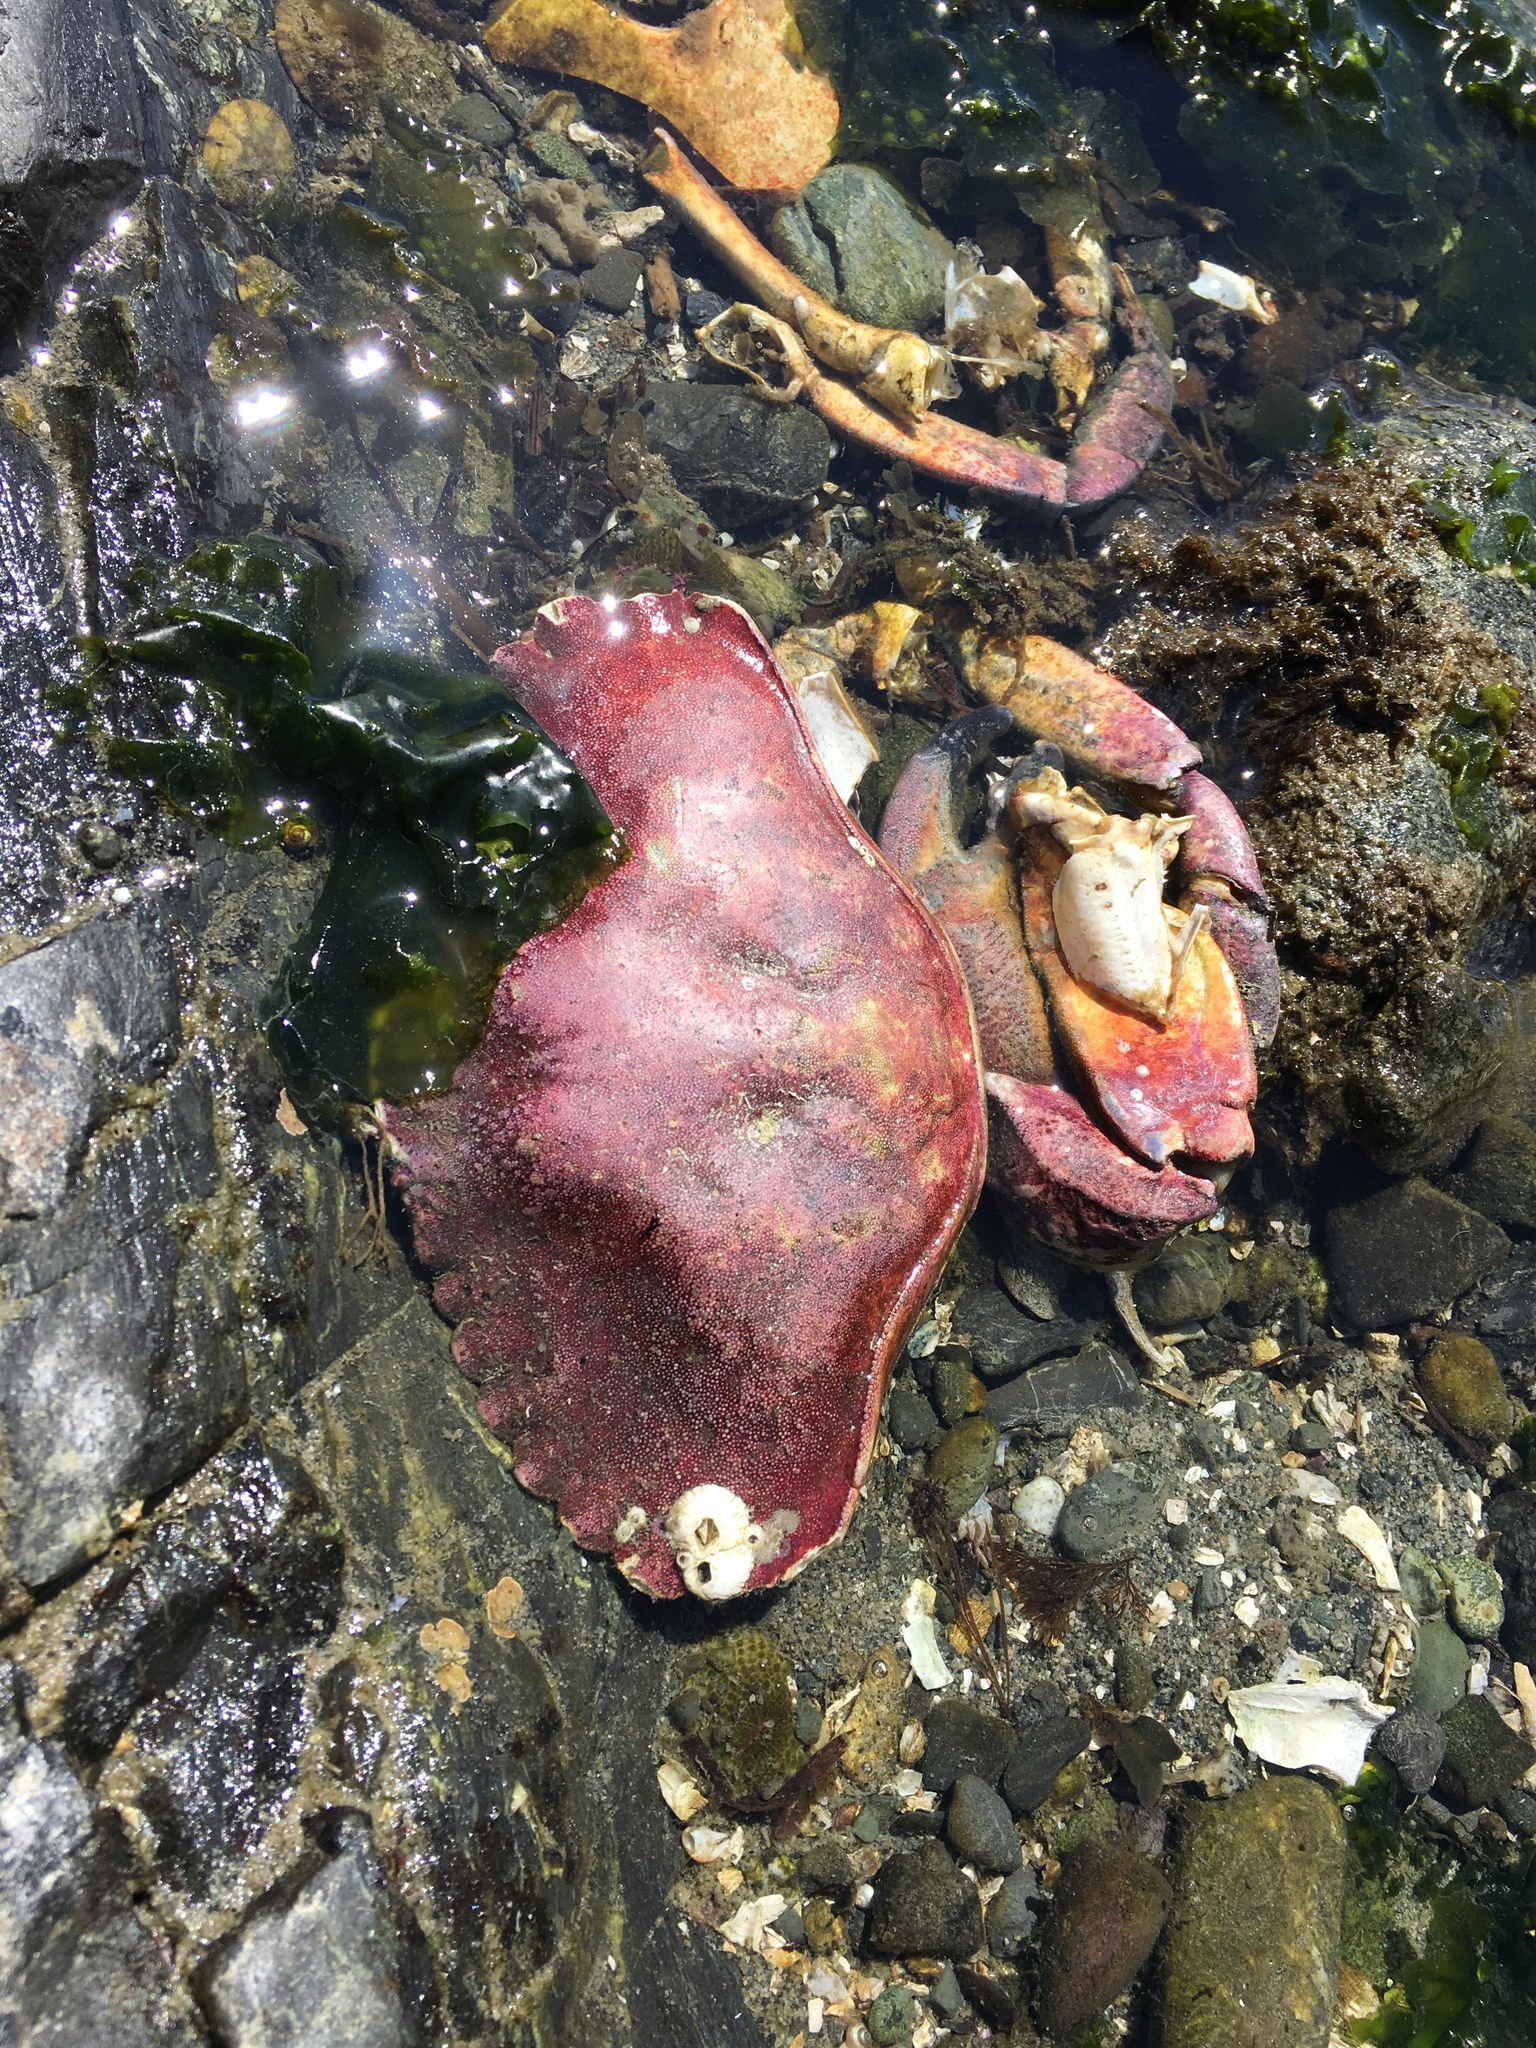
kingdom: Animalia
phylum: Arthropoda
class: Malacostraca
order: Decapoda
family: Cancridae
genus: Cancer
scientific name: Cancer productus
